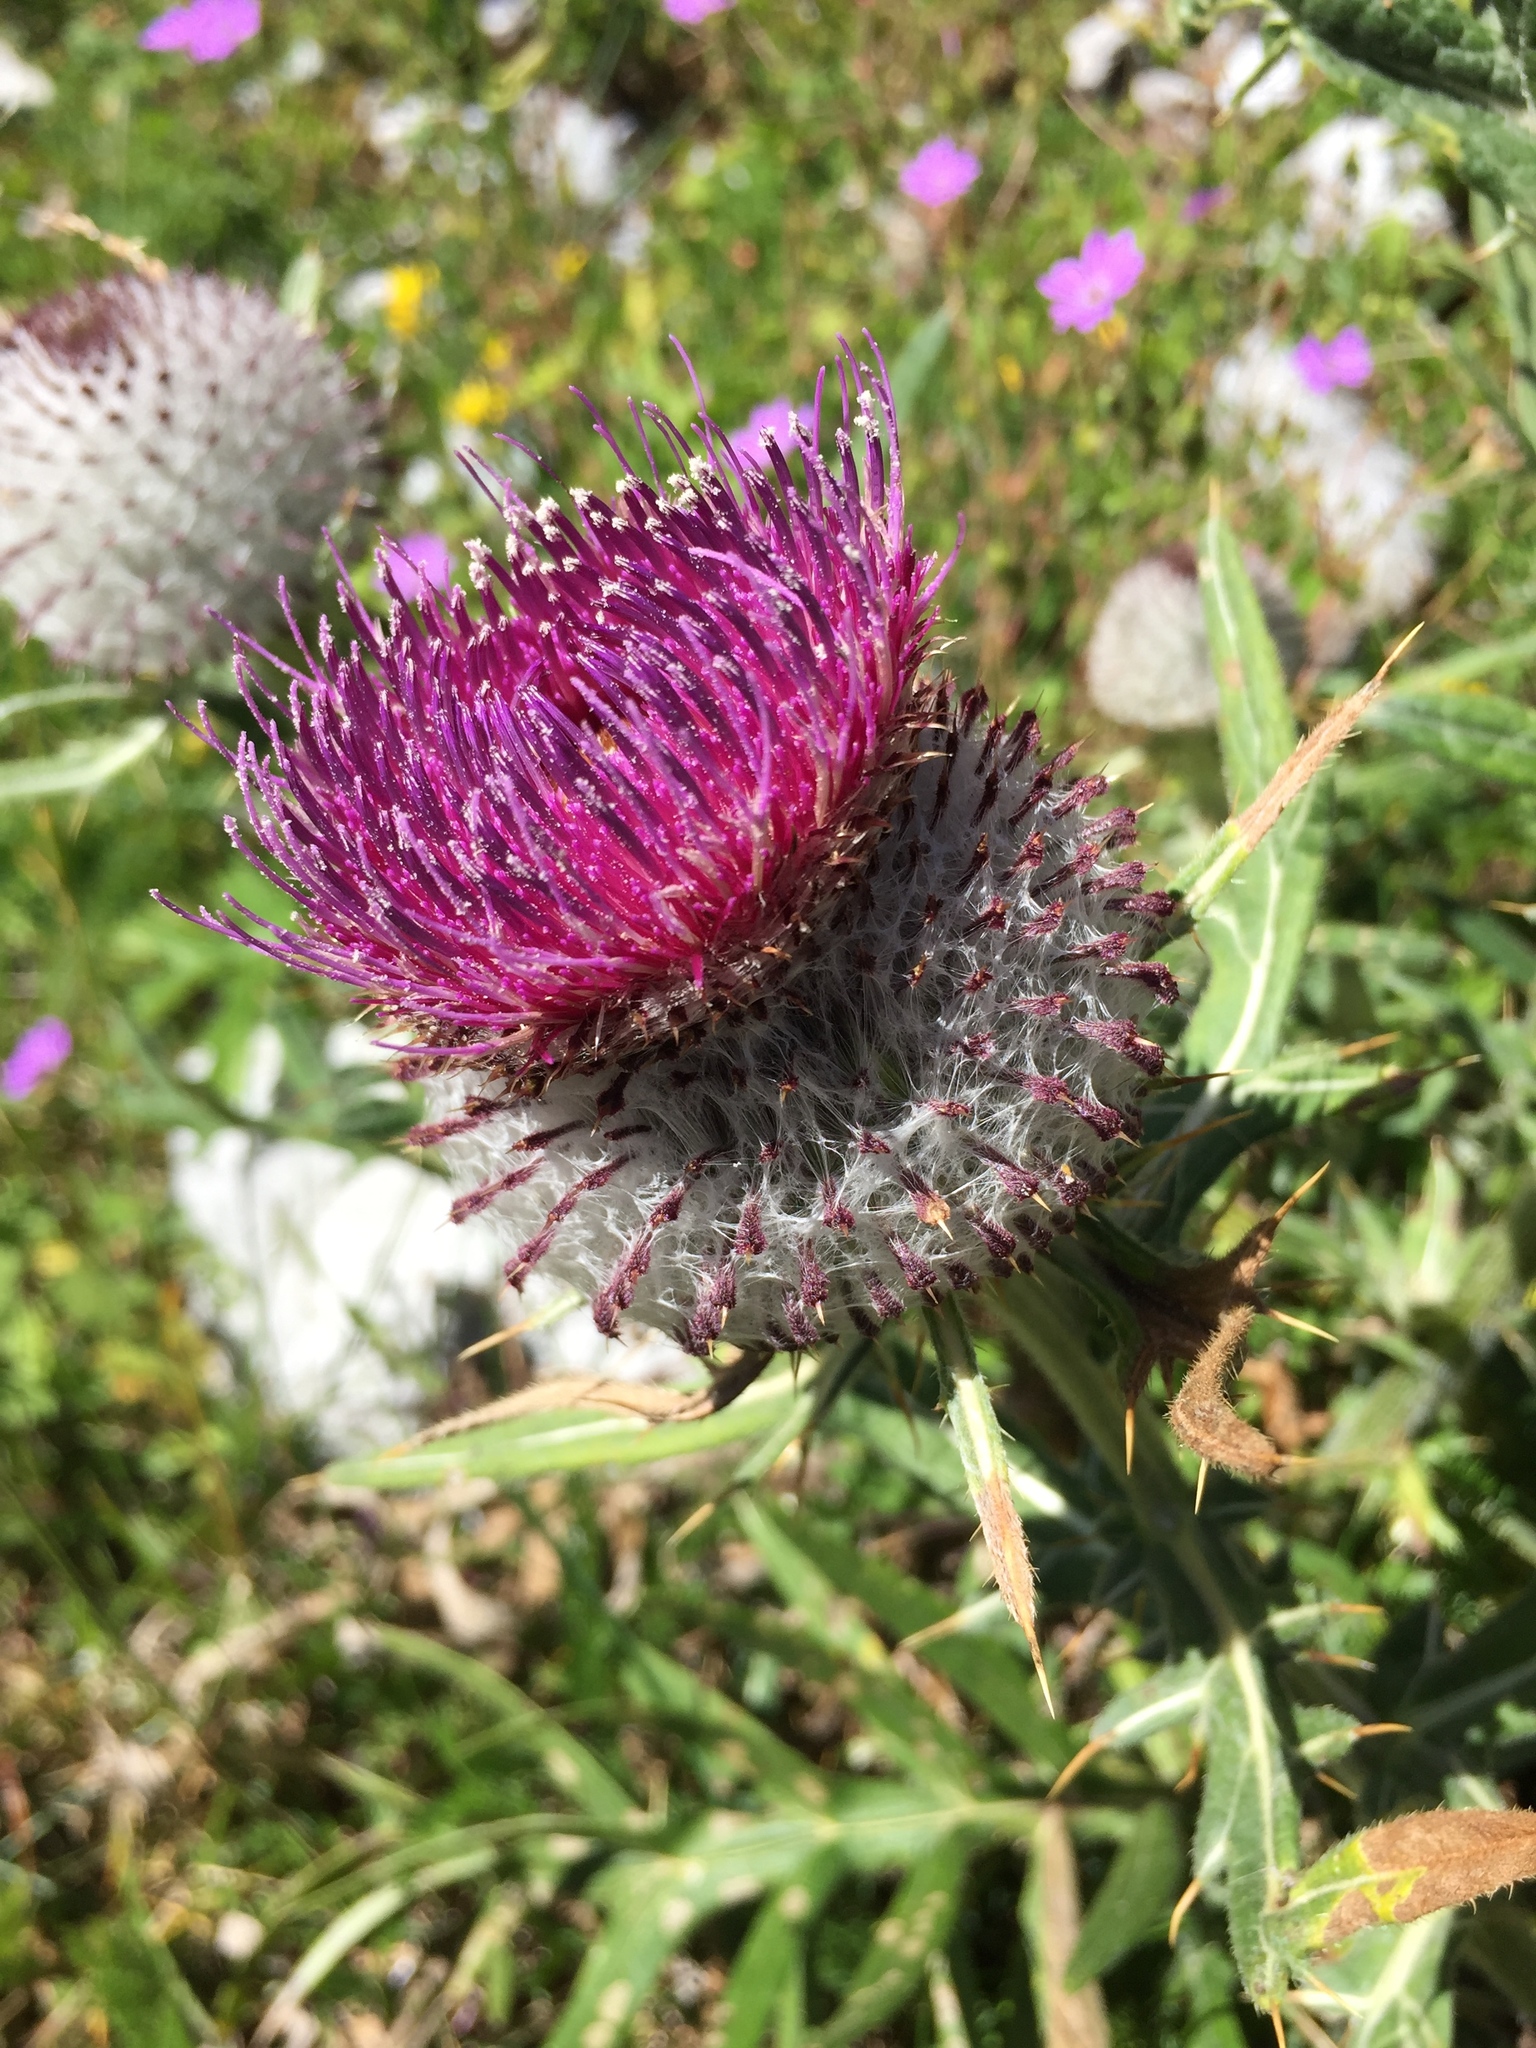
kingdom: Plantae
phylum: Tracheophyta
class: Magnoliopsida
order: Asterales
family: Asteraceae
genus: Lophiolepis
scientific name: Lophiolepis eriophora
